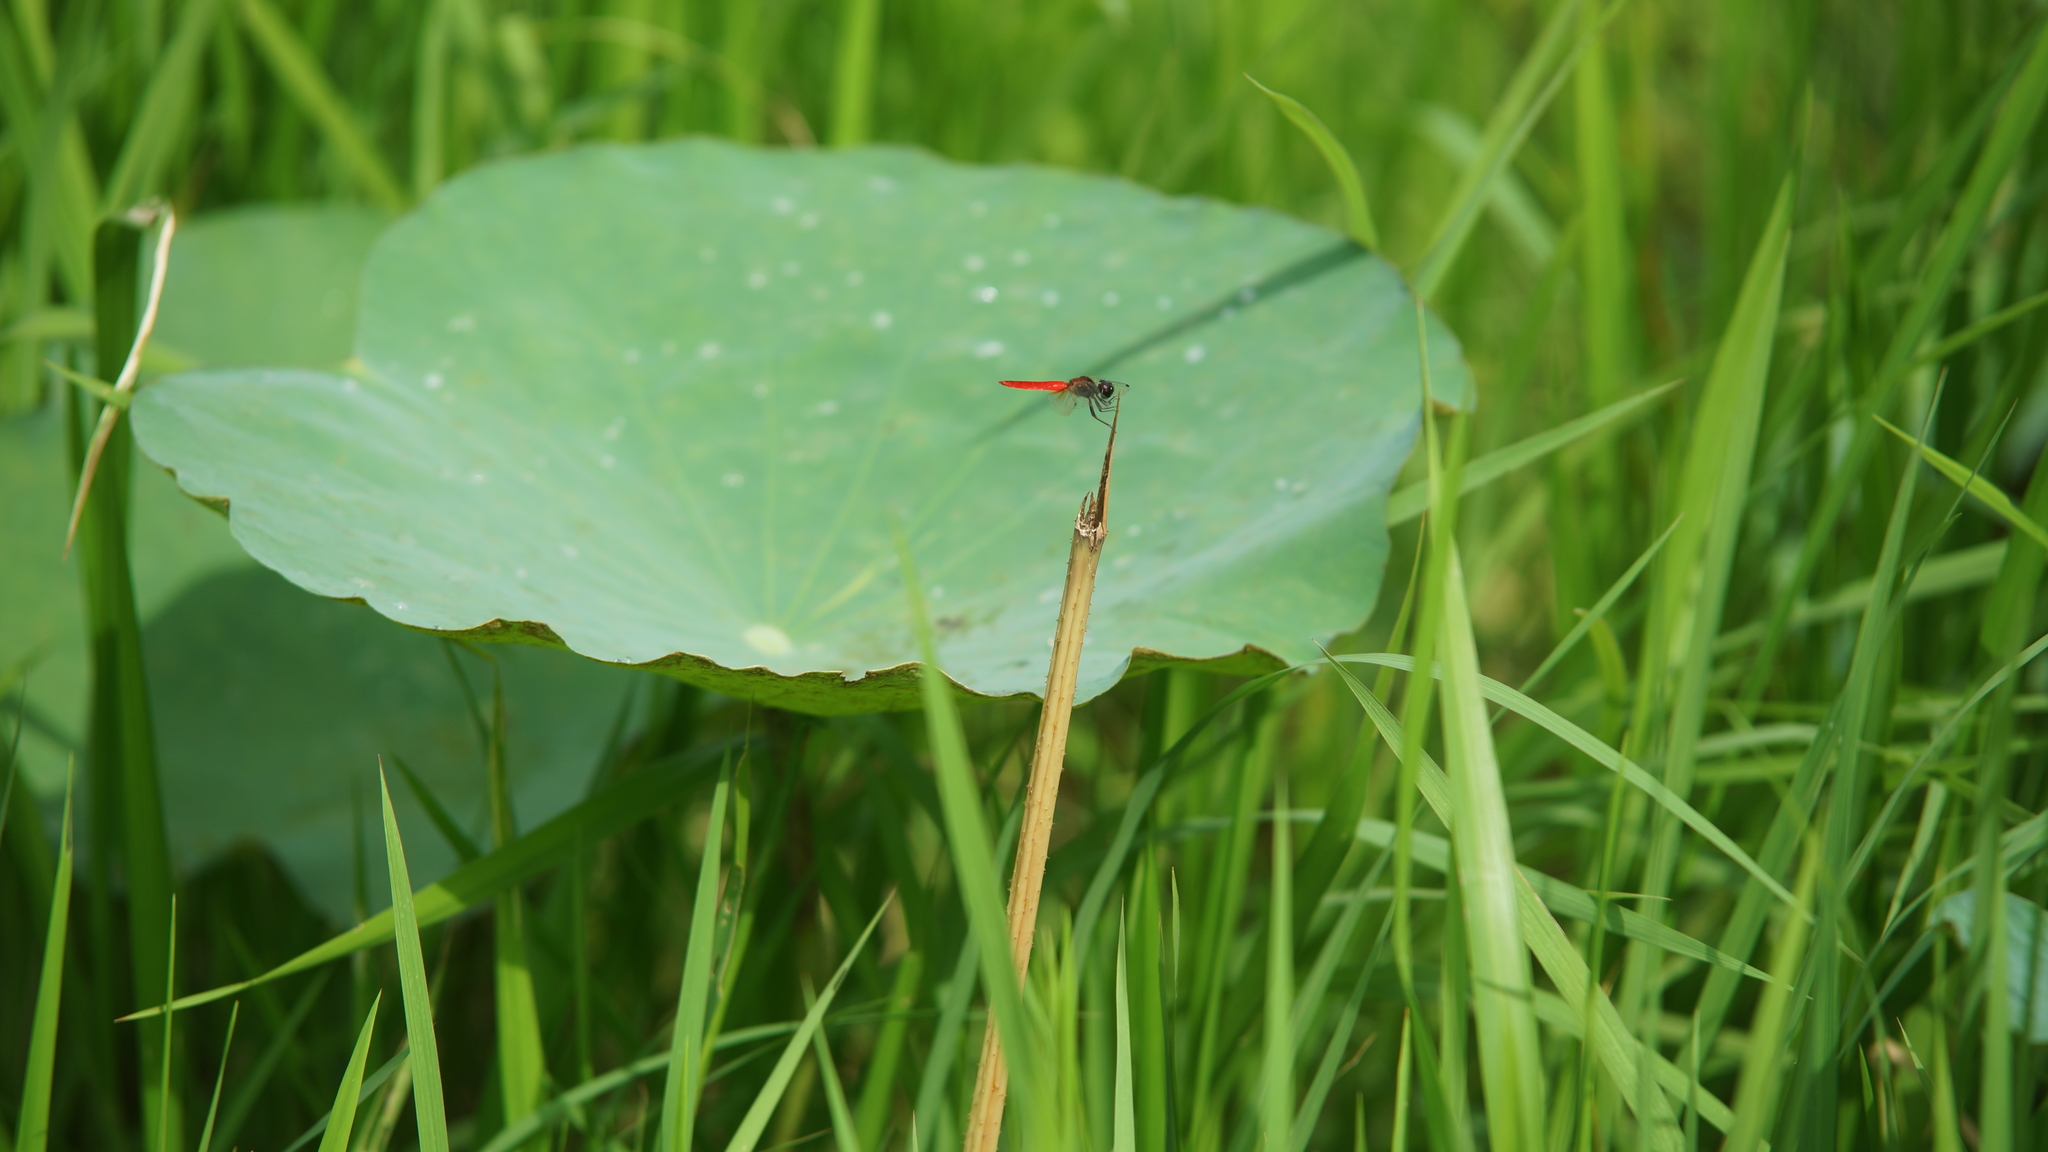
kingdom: Animalia
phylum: Arthropoda
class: Insecta
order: Odonata
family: Libellulidae
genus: Aethriamanta
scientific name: Aethriamanta brevipennis
